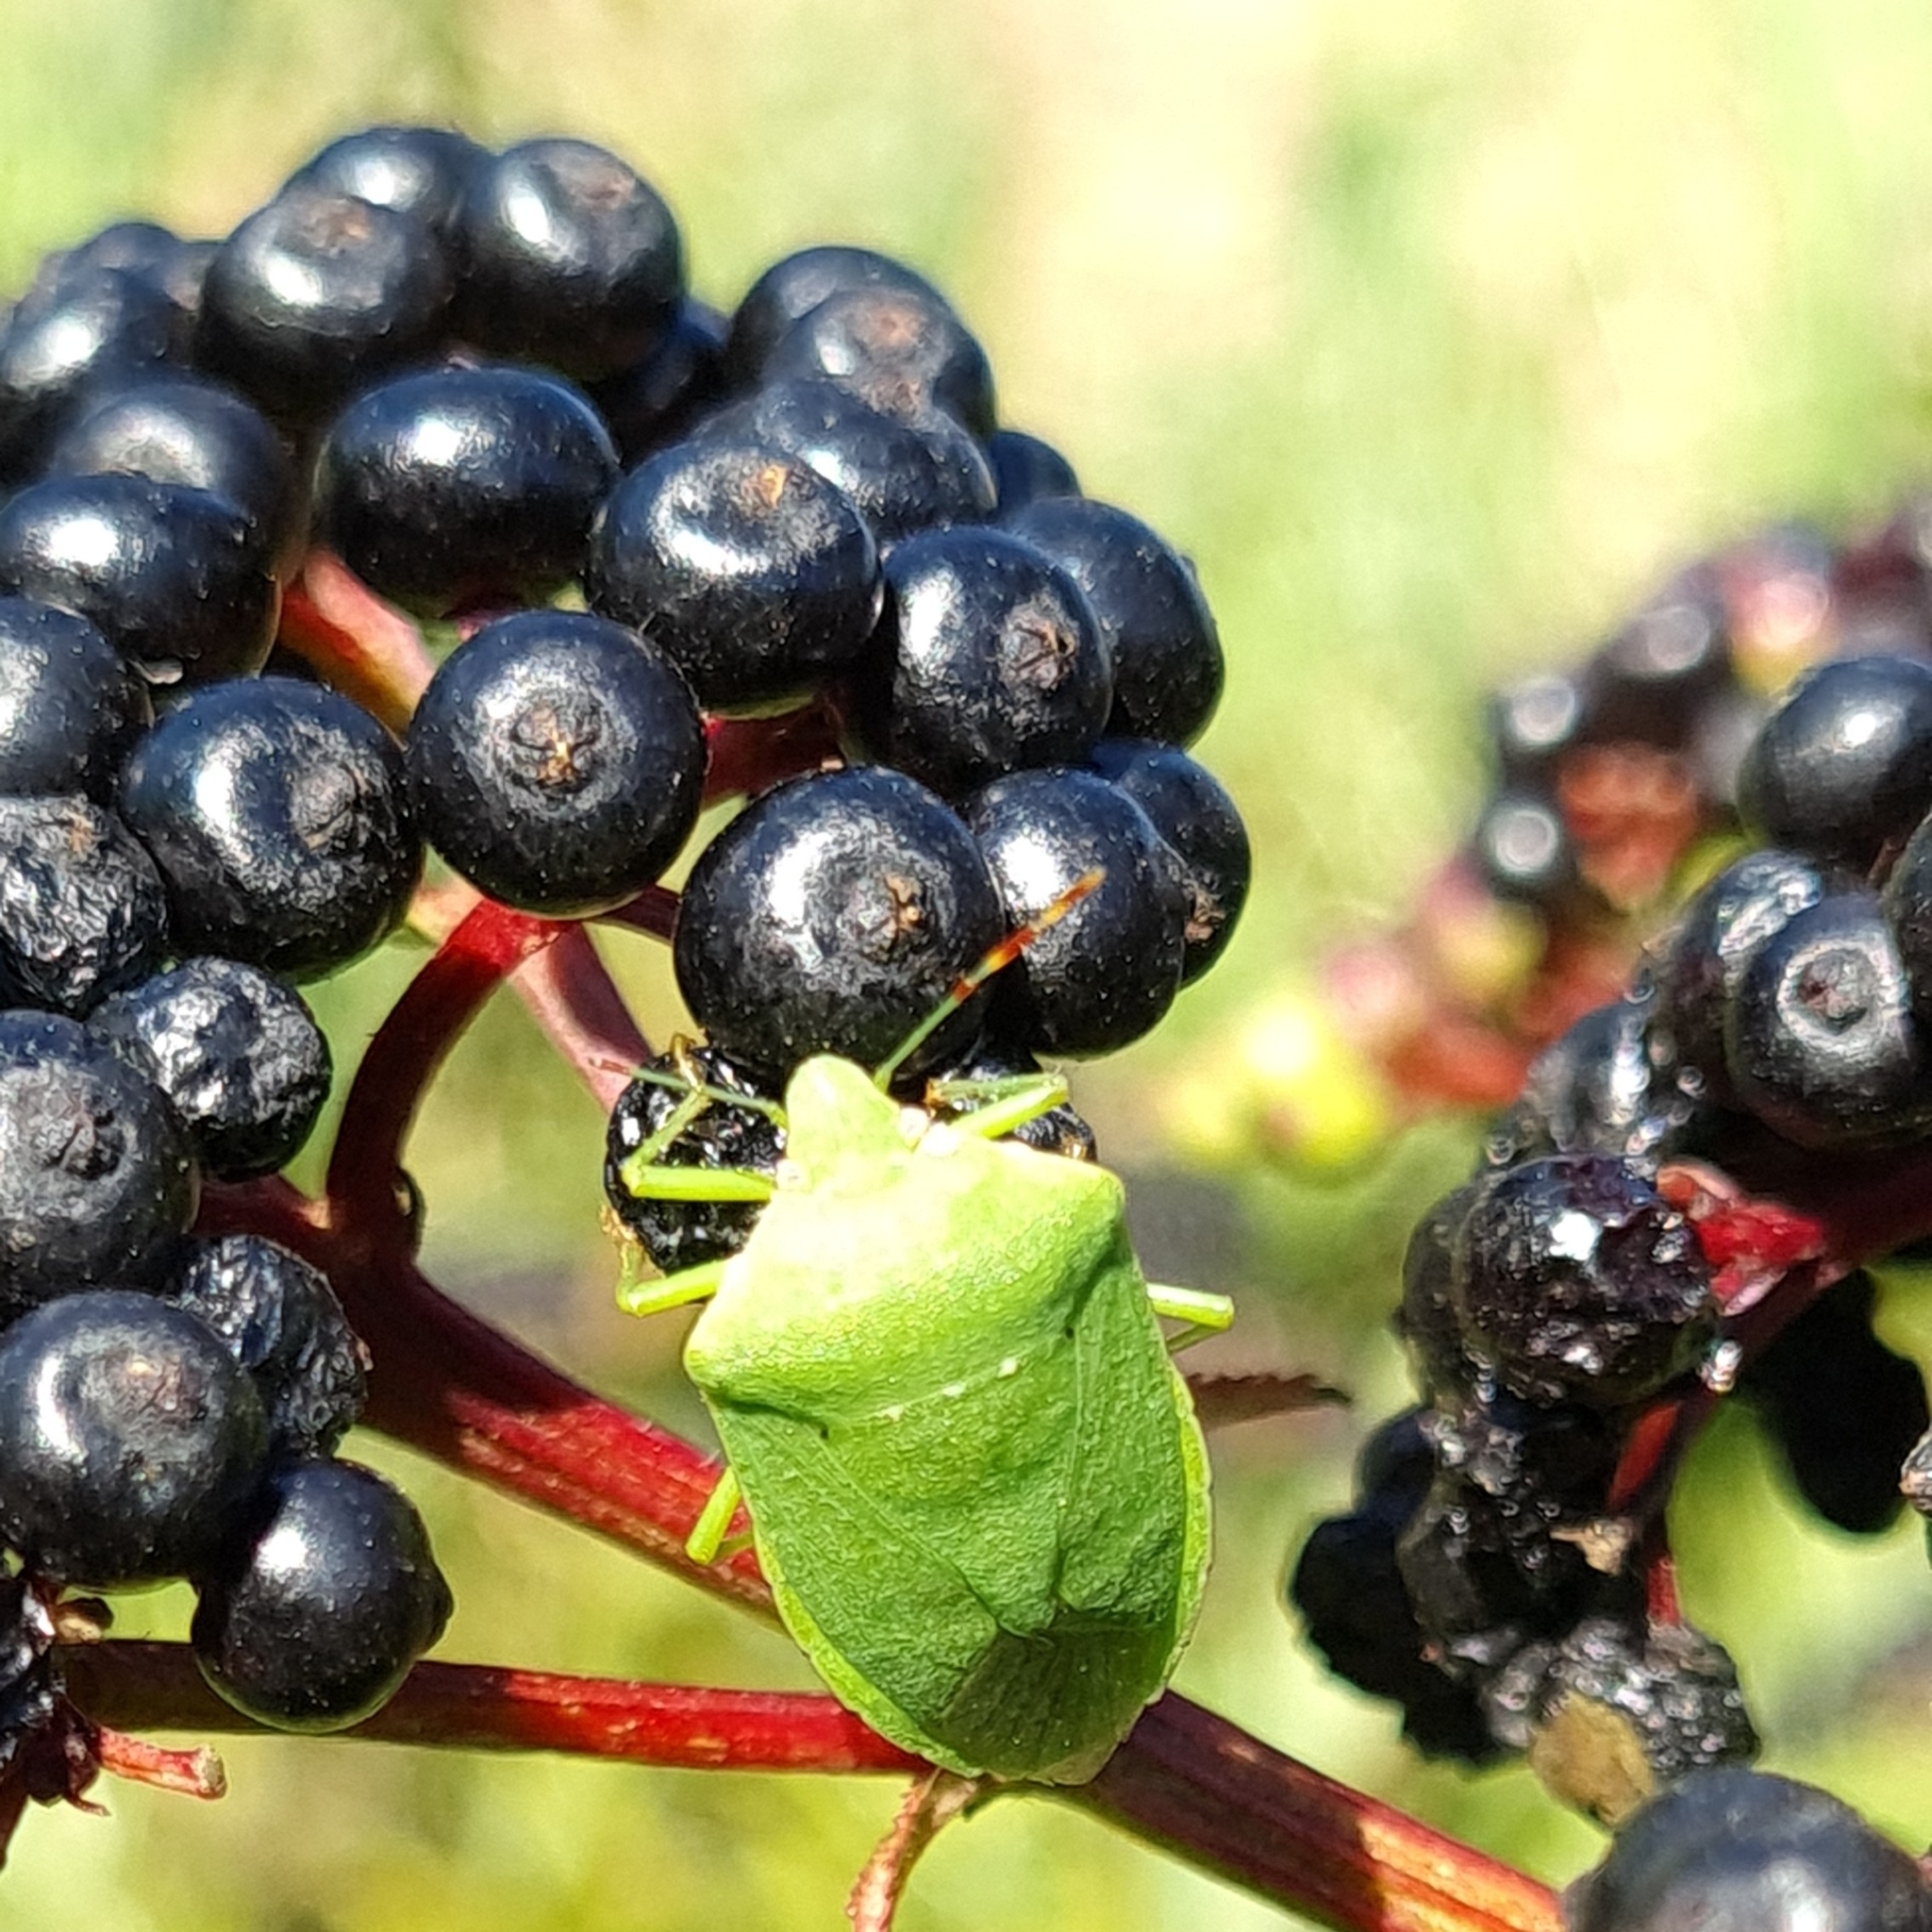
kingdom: Animalia
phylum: Arthropoda
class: Insecta
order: Hemiptera
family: Pentatomidae
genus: Nezara
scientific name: Nezara viridula
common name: Southern green stink bug
